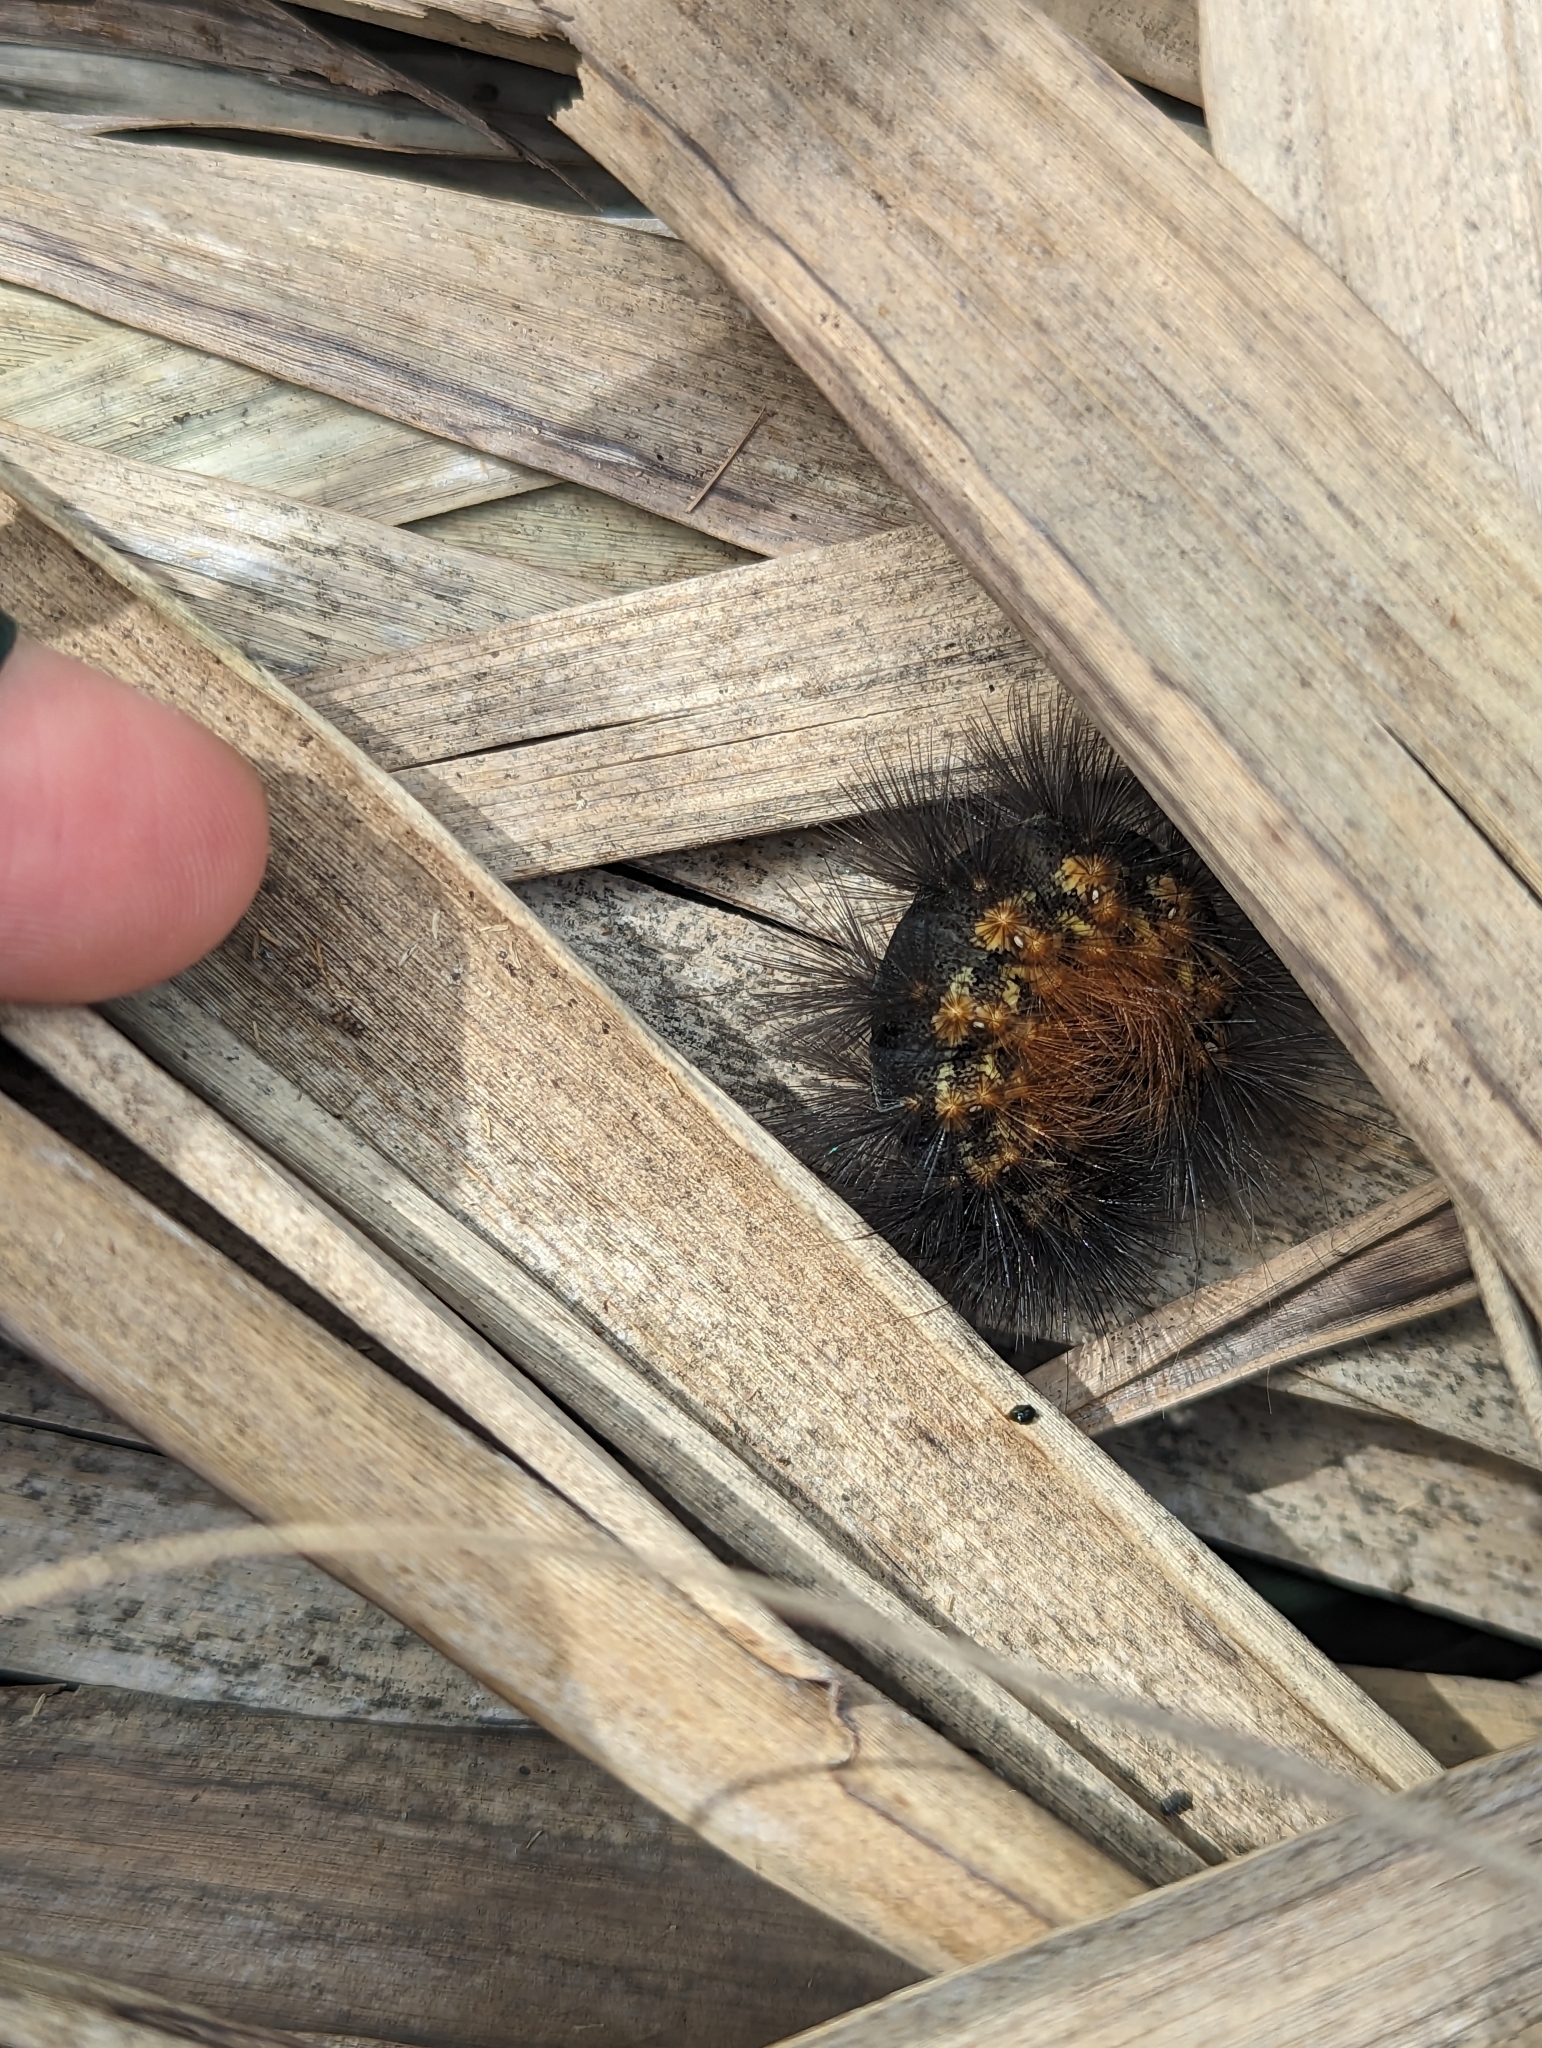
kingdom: Animalia
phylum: Arthropoda
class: Insecta
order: Lepidoptera
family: Erebidae
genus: Estigmene
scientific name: Estigmene acrea
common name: Salt marsh moth
